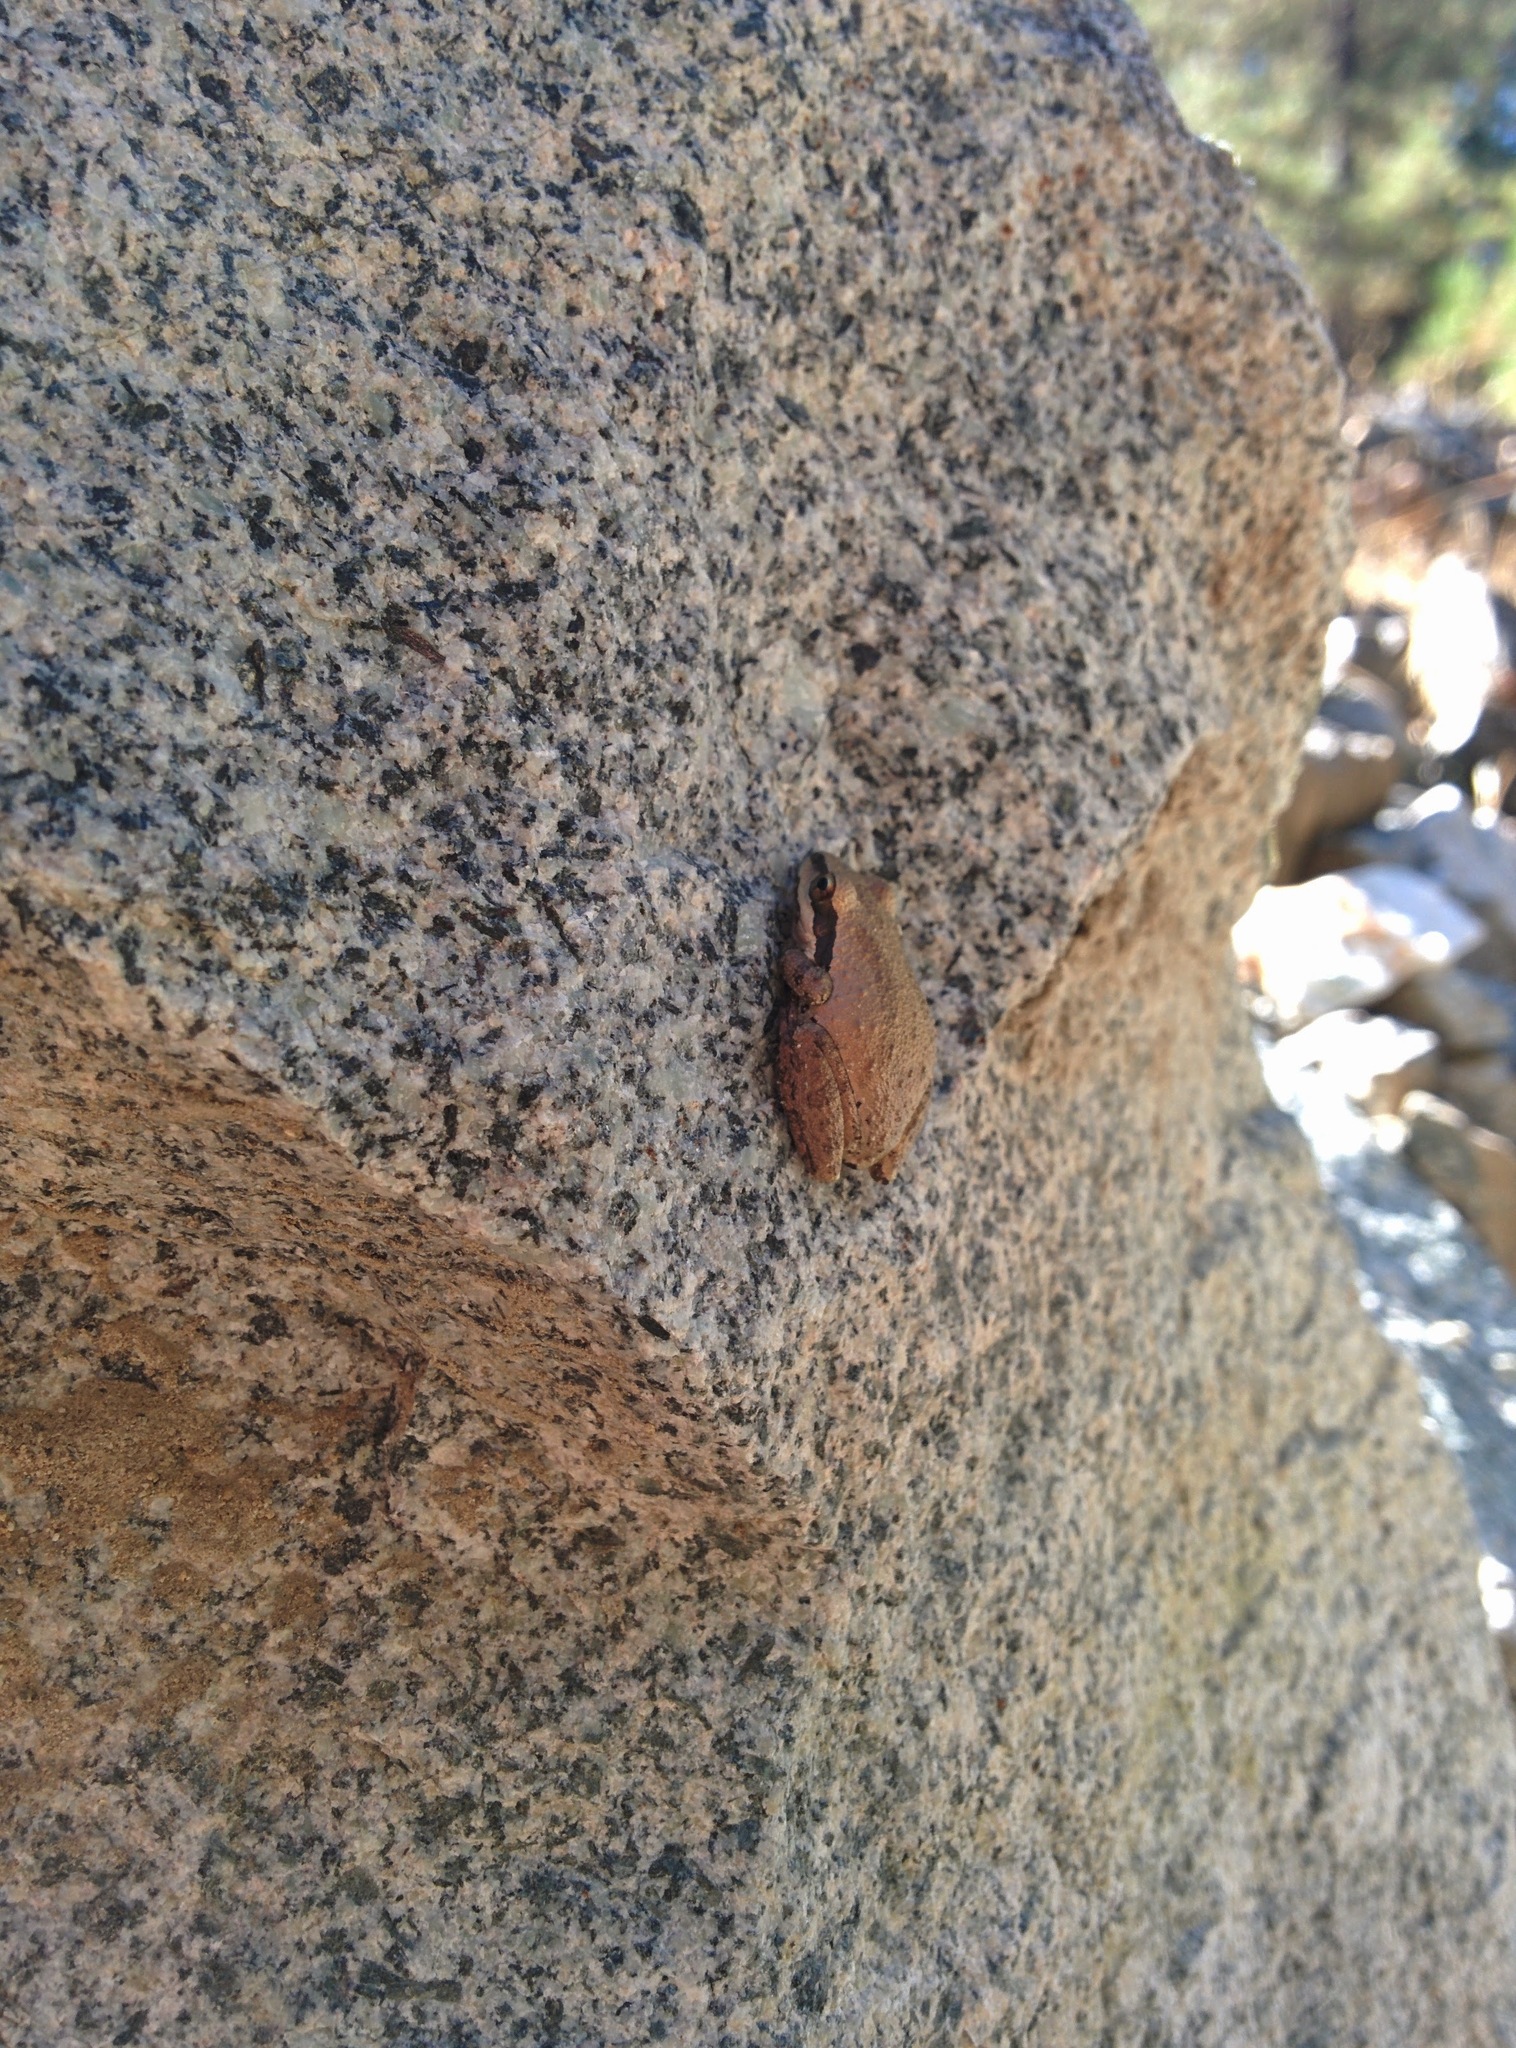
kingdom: Animalia
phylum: Chordata
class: Amphibia
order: Anura
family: Hylidae
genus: Pseudacris
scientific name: Pseudacris regilla
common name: Pacific chorus frog
